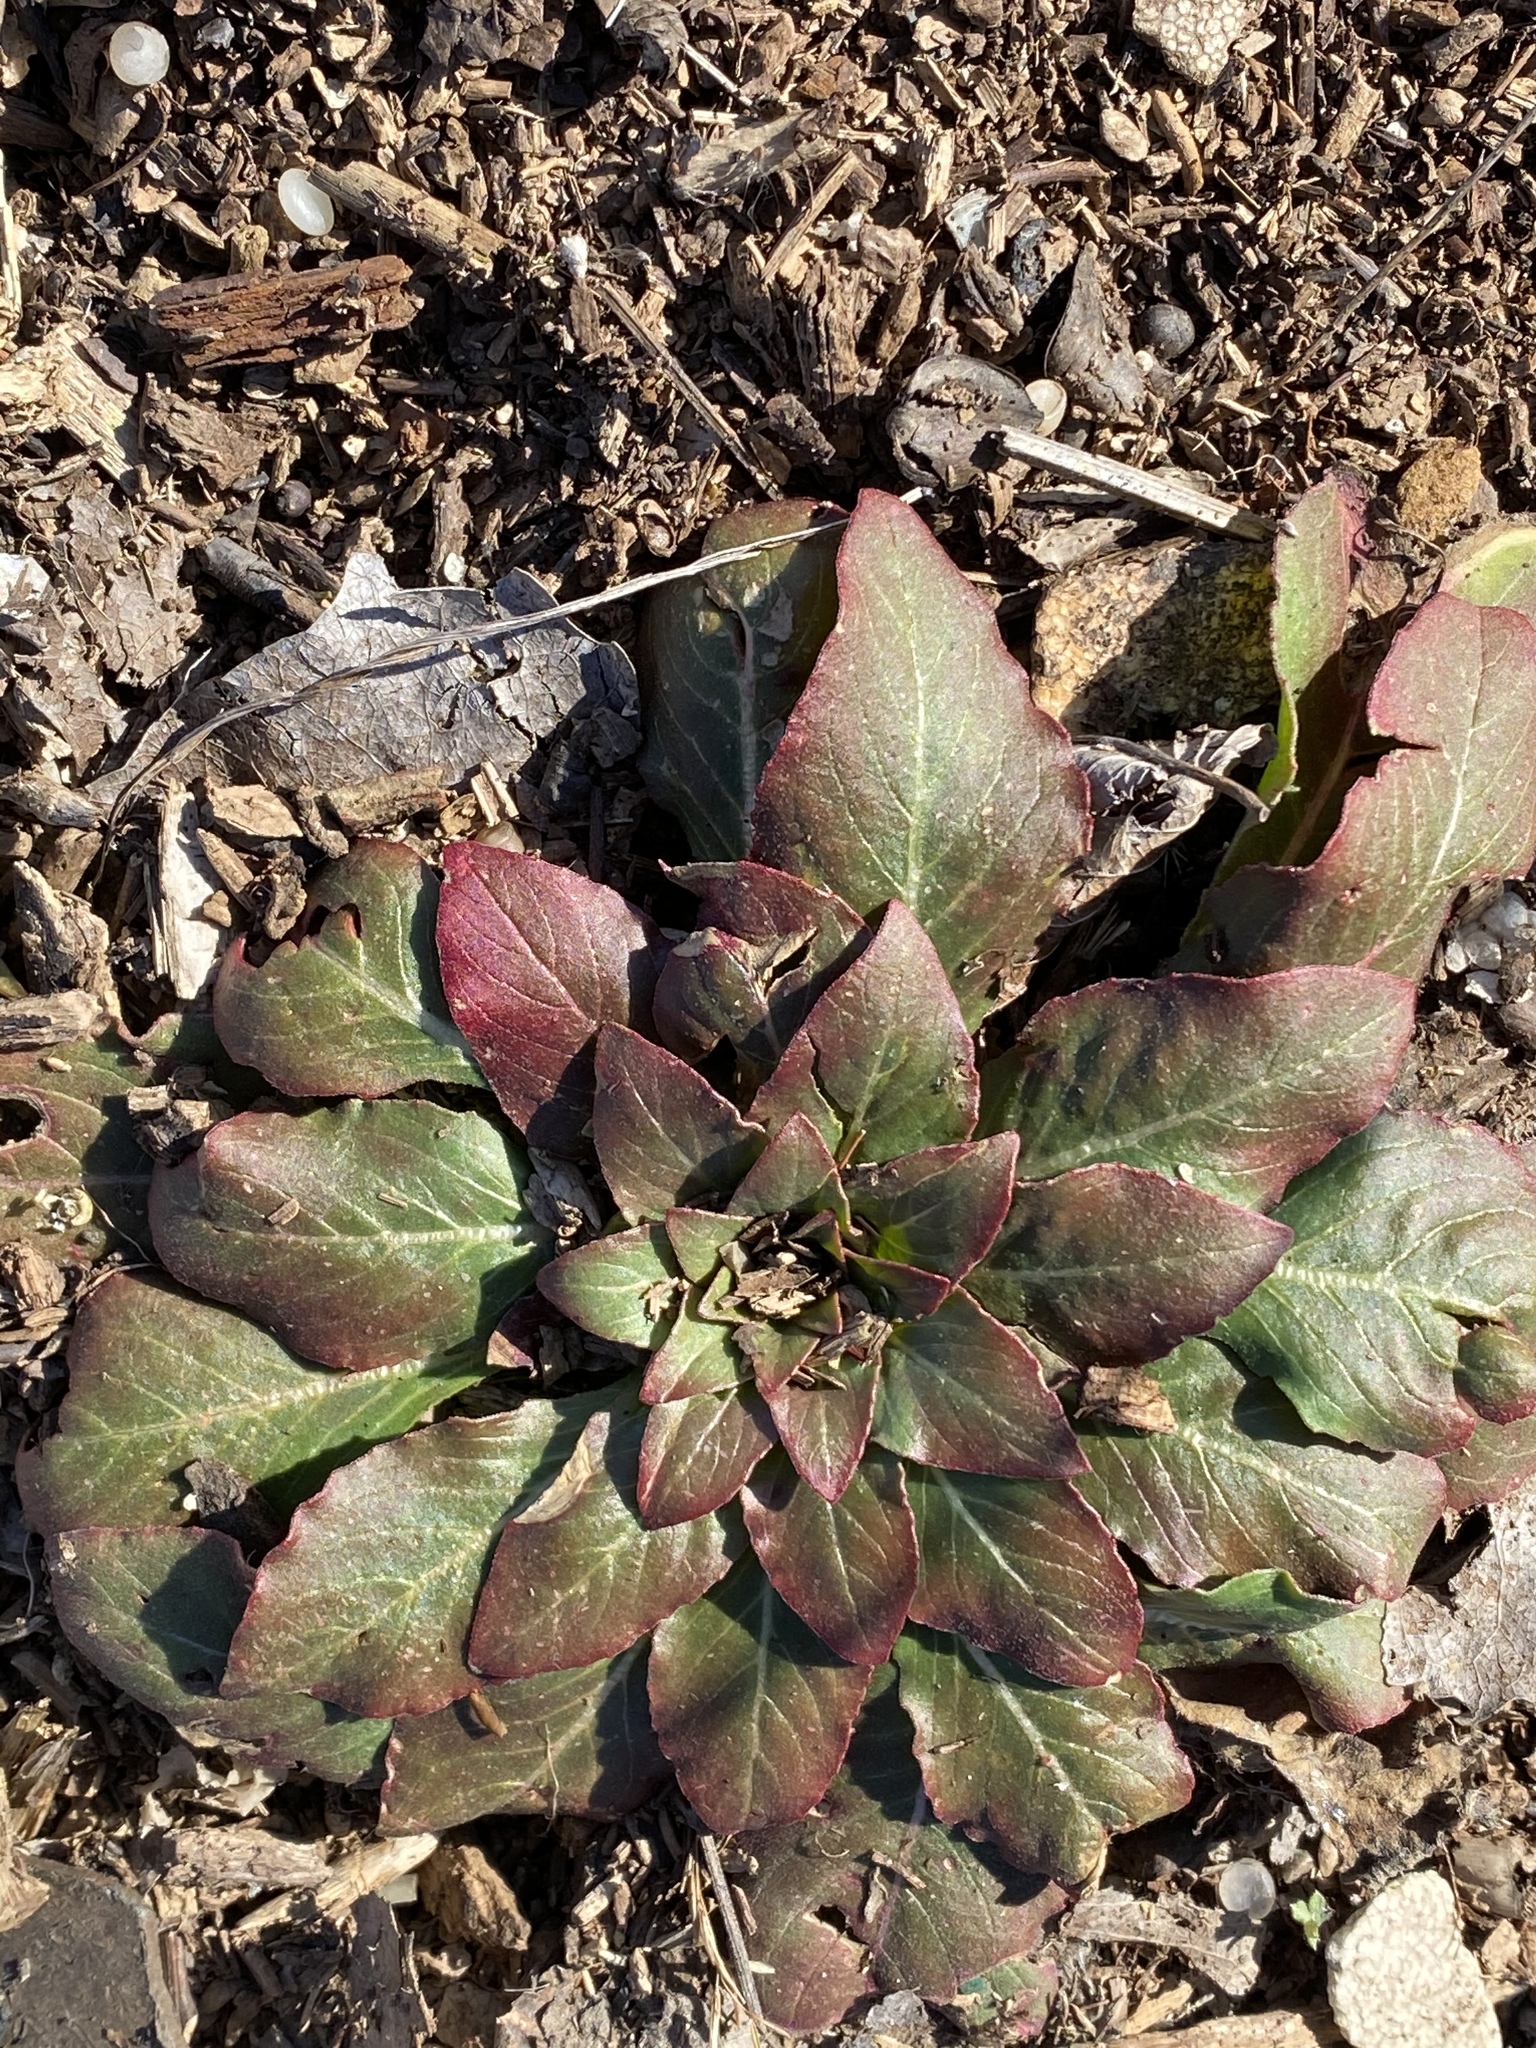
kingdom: Plantae
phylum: Tracheophyta
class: Magnoliopsida
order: Myrtales
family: Onagraceae
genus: Oenothera
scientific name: Oenothera biennis
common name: Common evening-primrose
